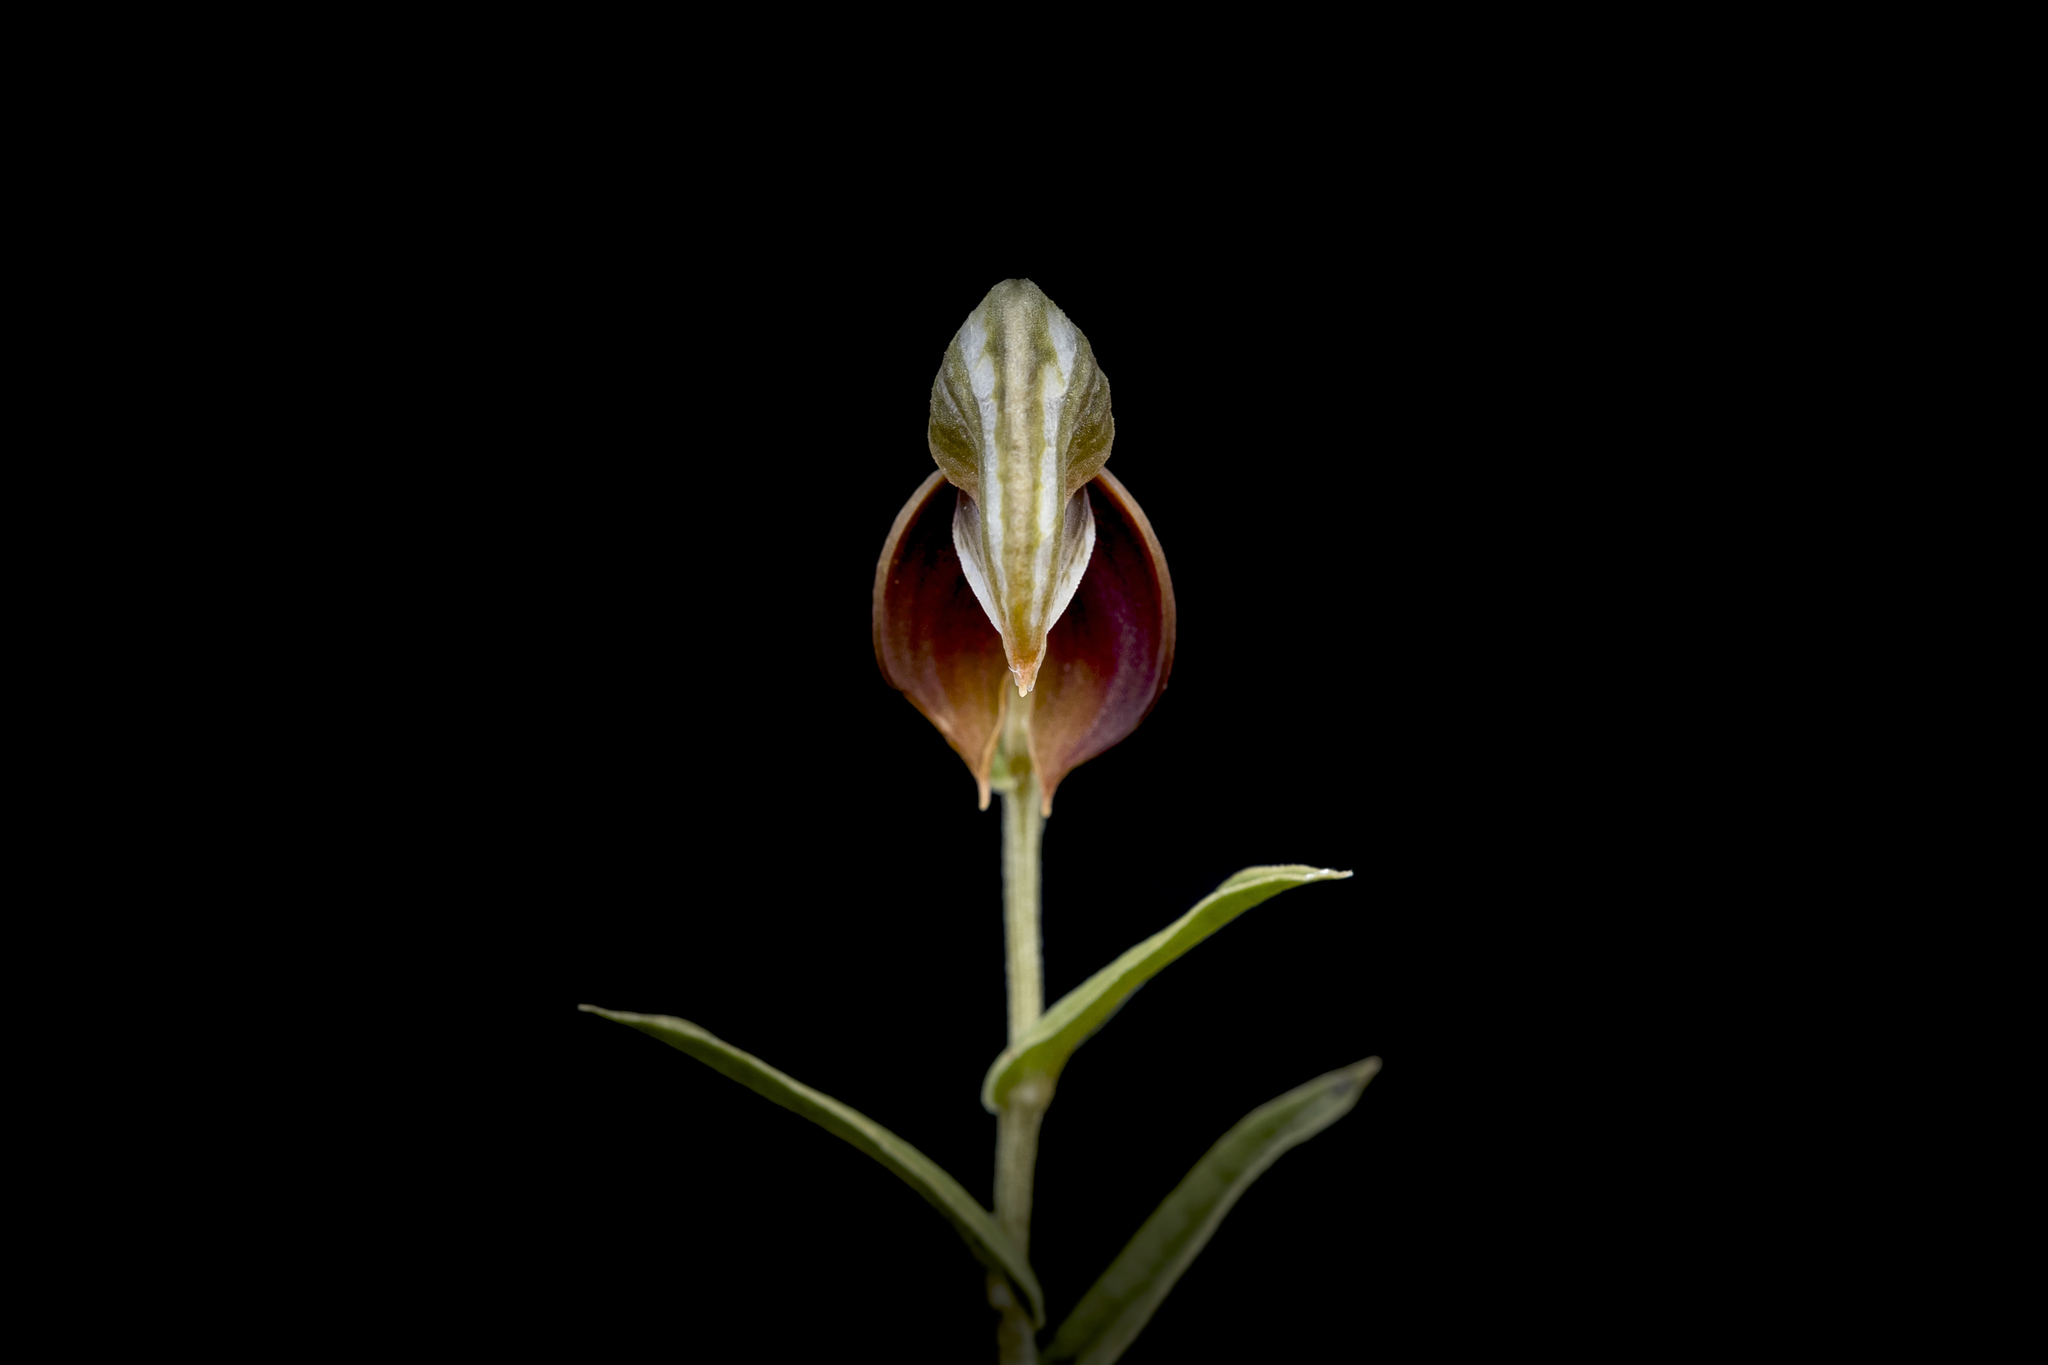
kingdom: Plantae
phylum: Tracheophyta
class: Liliopsida
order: Asparagales
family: Orchidaceae
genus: Pterostylis
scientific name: Pterostylis sanguinea
